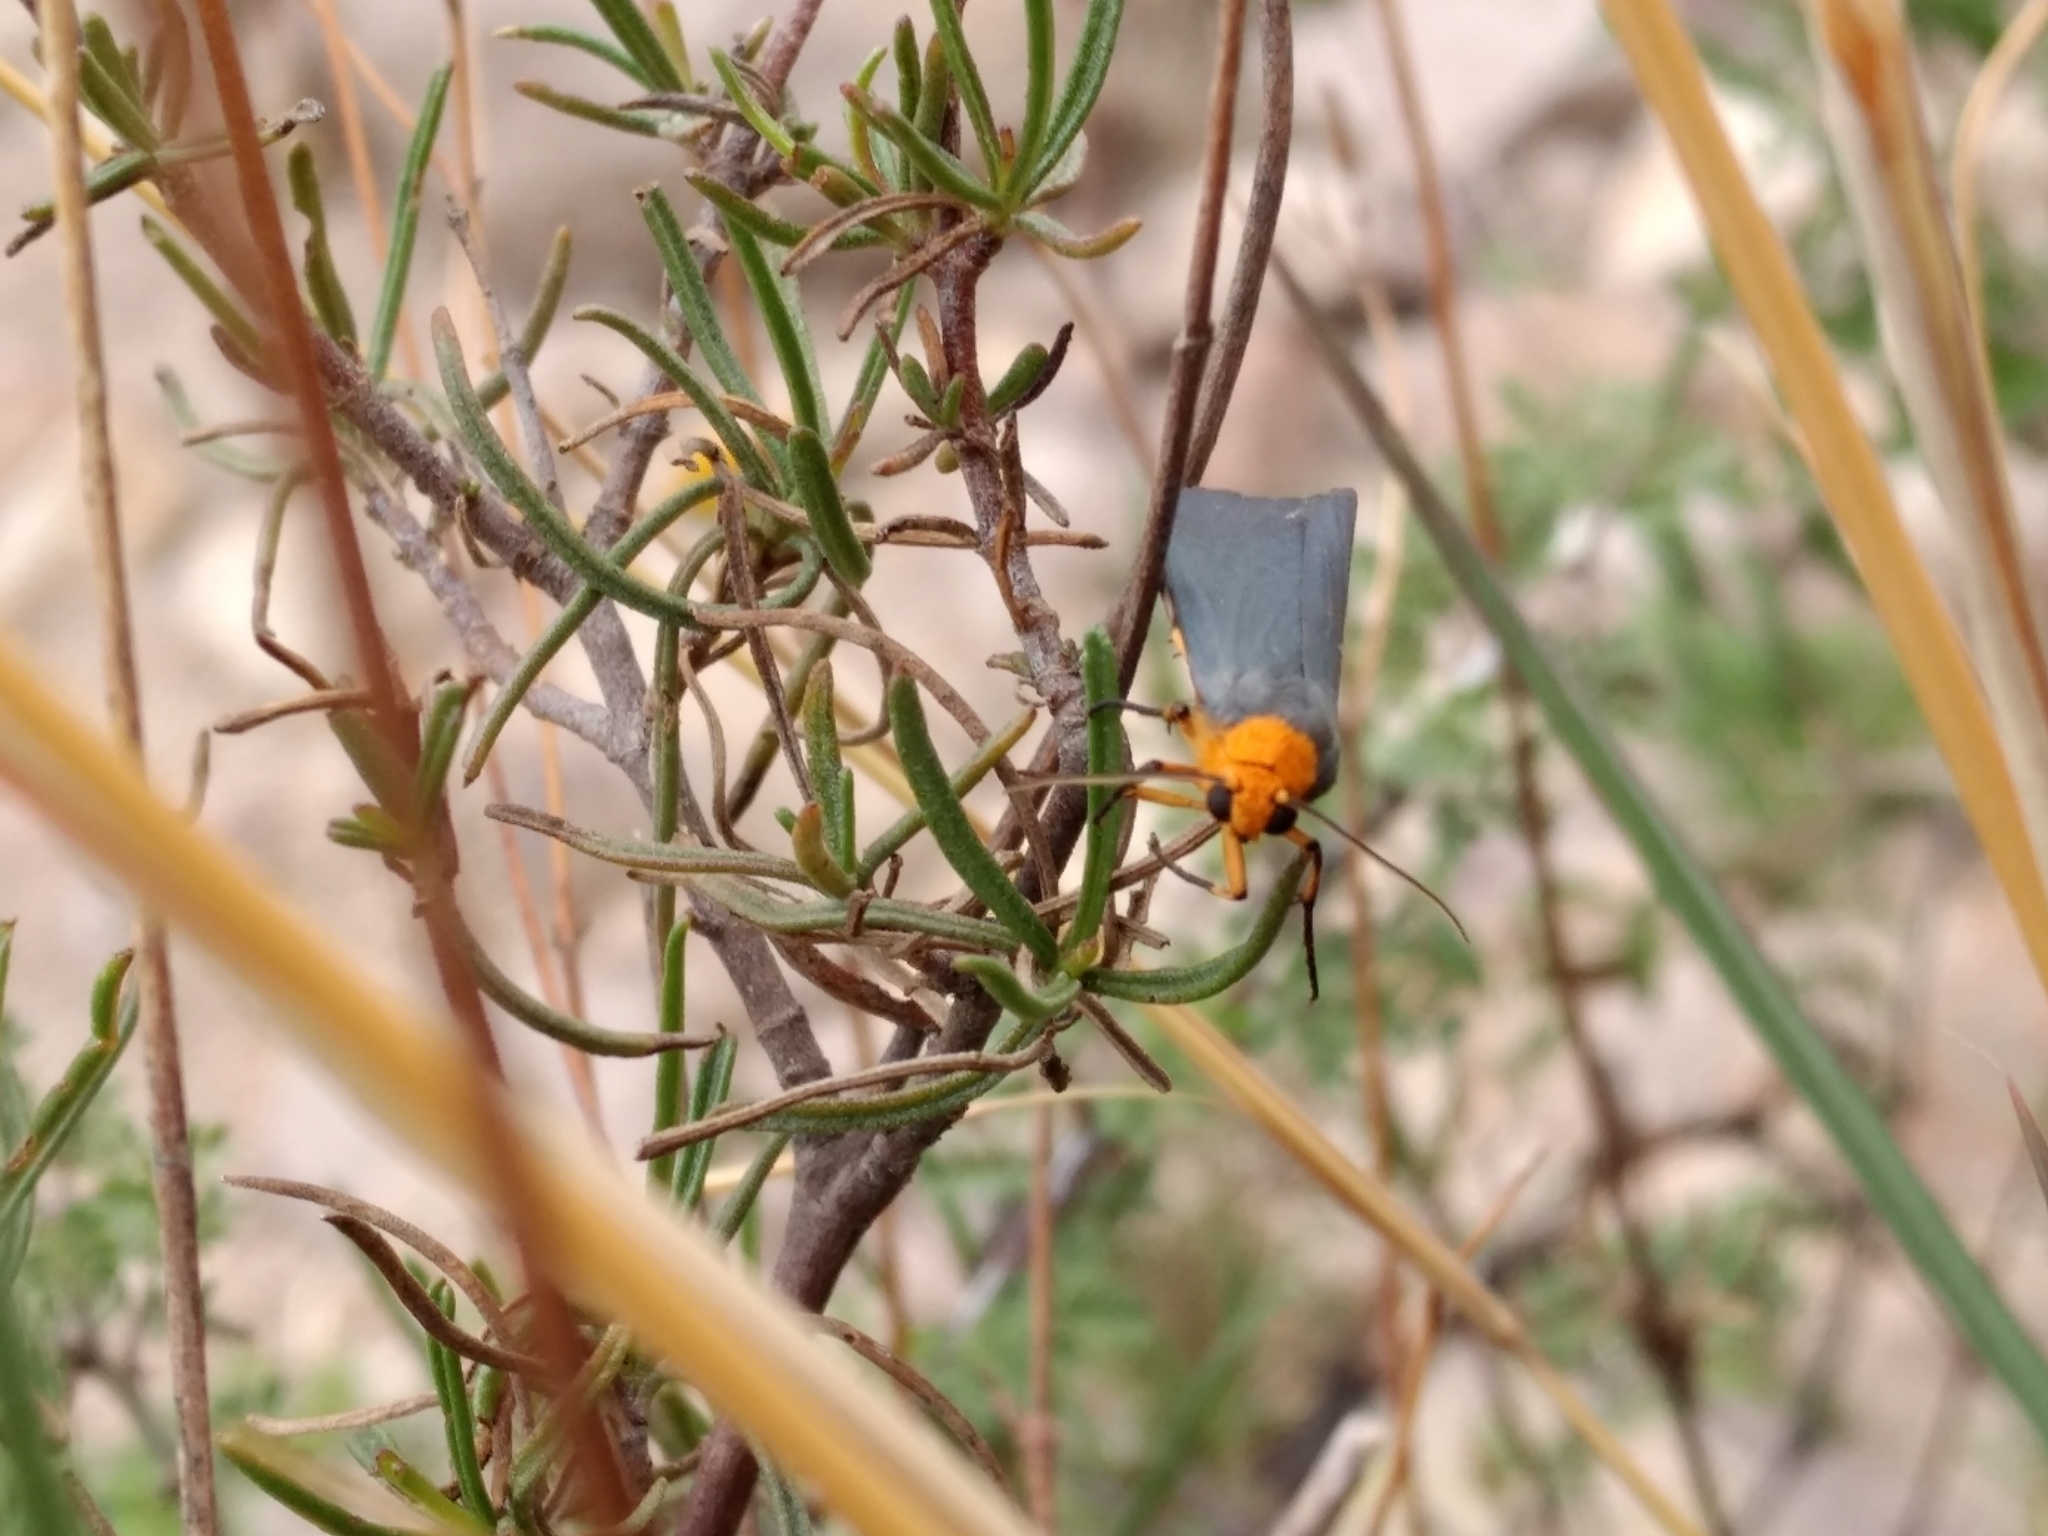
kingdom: Animalia
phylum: Arthropoda
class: Insecta
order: Lepidoptera
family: Erebidae
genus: Gnamptonychia
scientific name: Gnamptonychia ventralis
